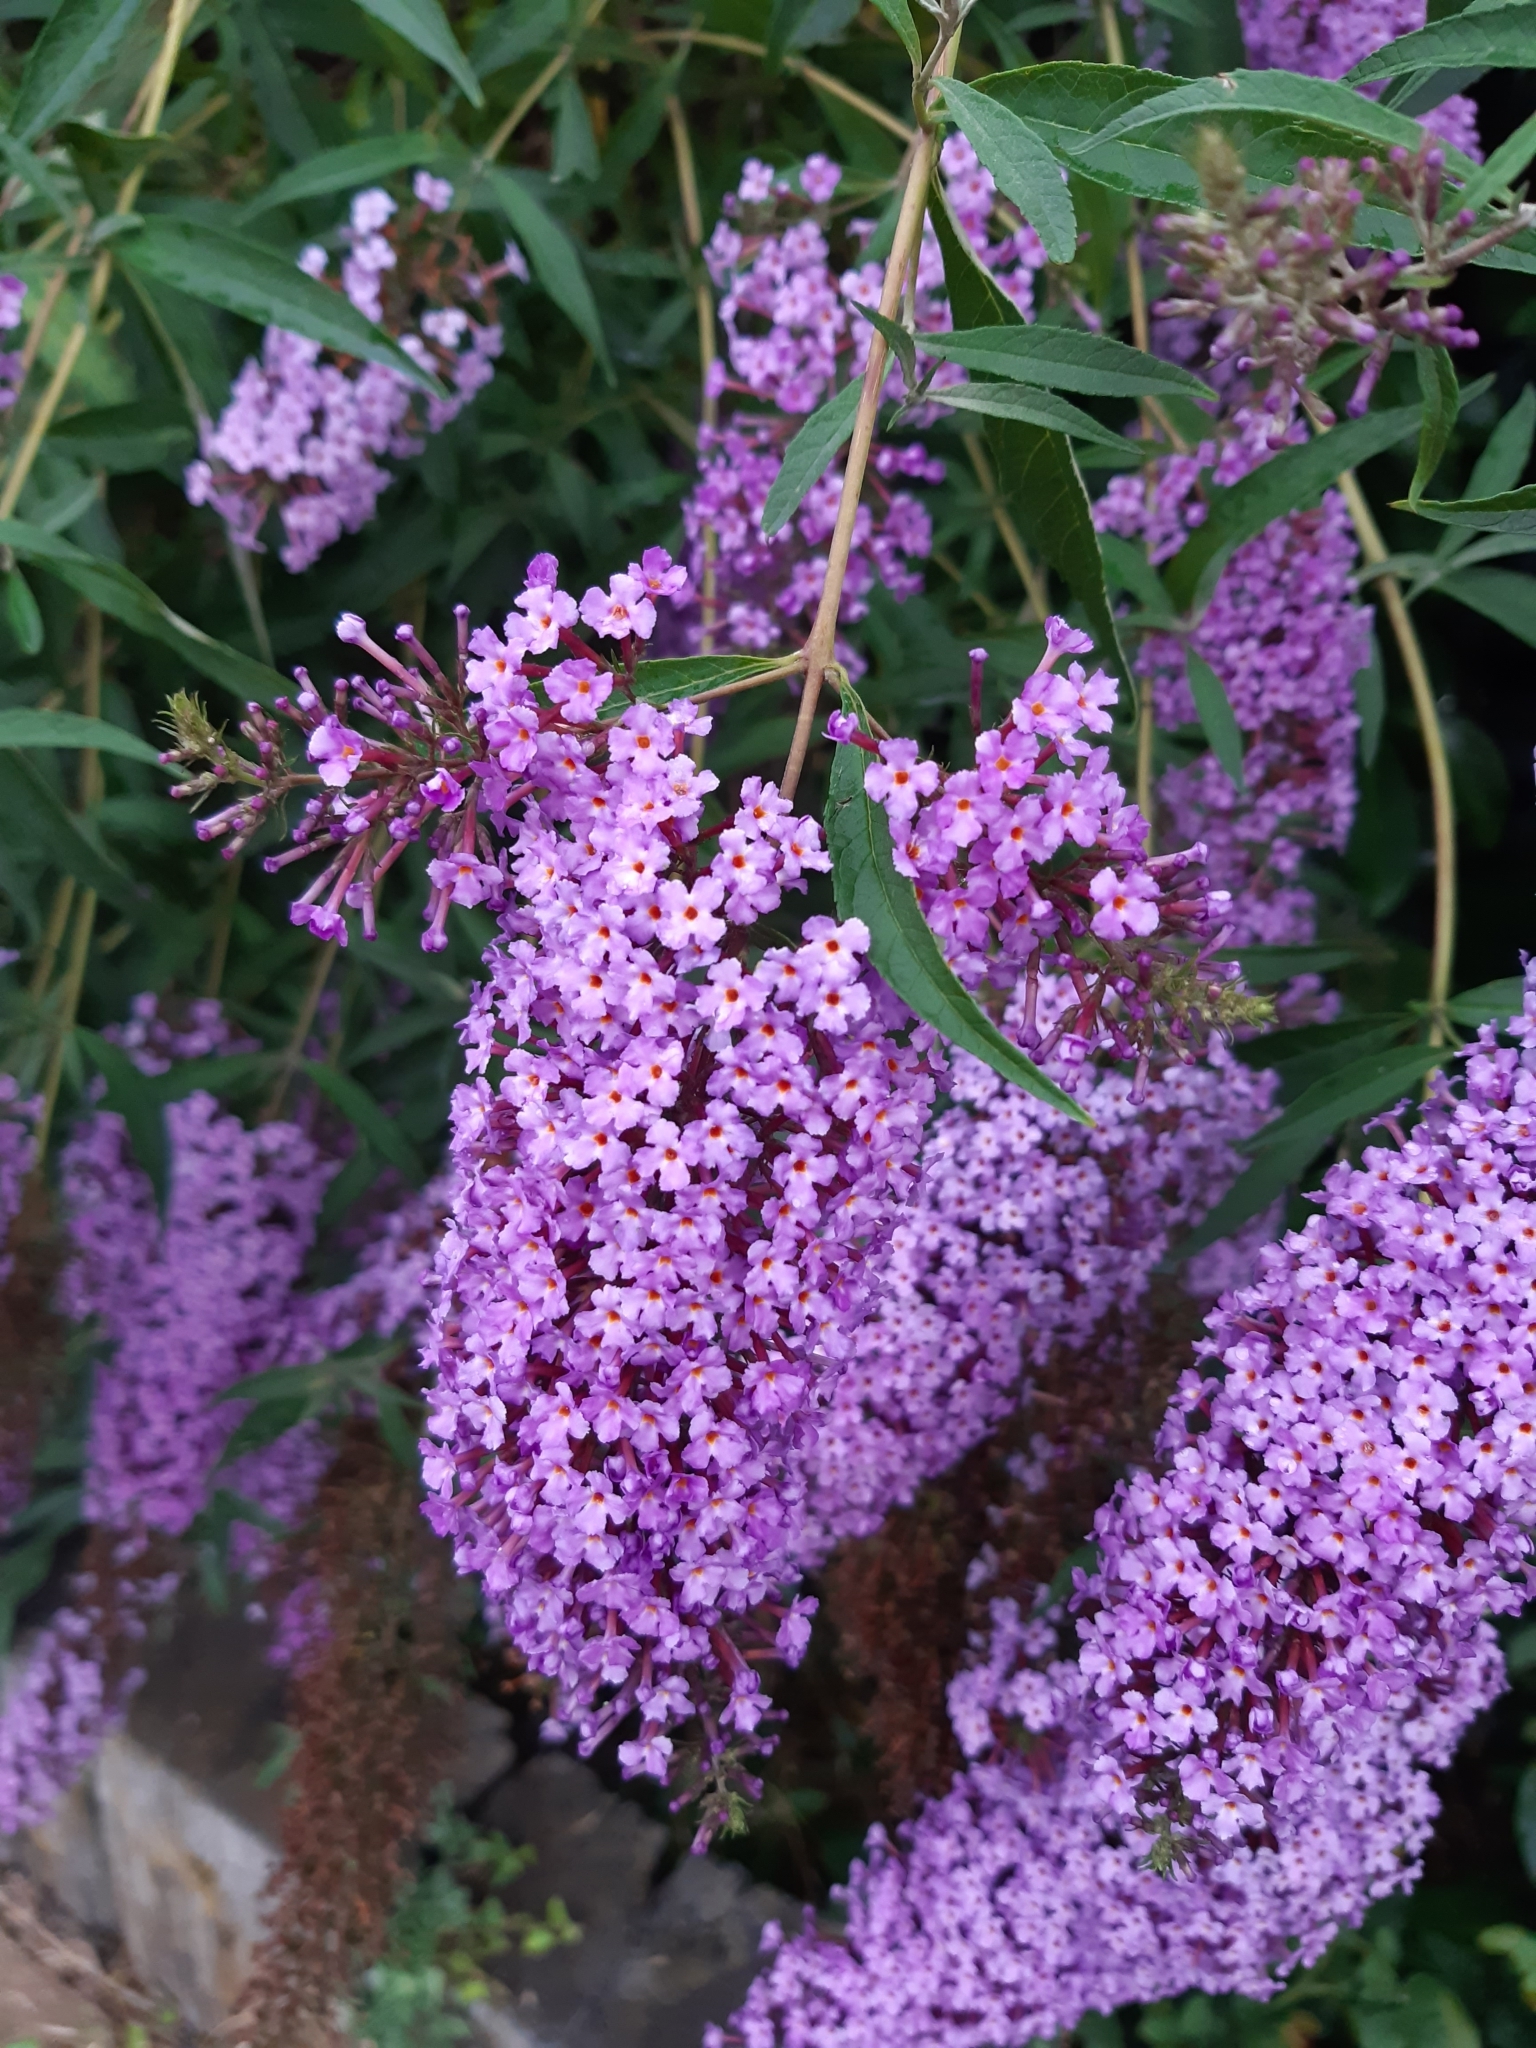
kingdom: Plantae
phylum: Tracheophyta
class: Magnoliopsida
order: Lamiales
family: Scrophulariaceae
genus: Buddleja
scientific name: Buddleja davidii
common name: Butterfly-bush
